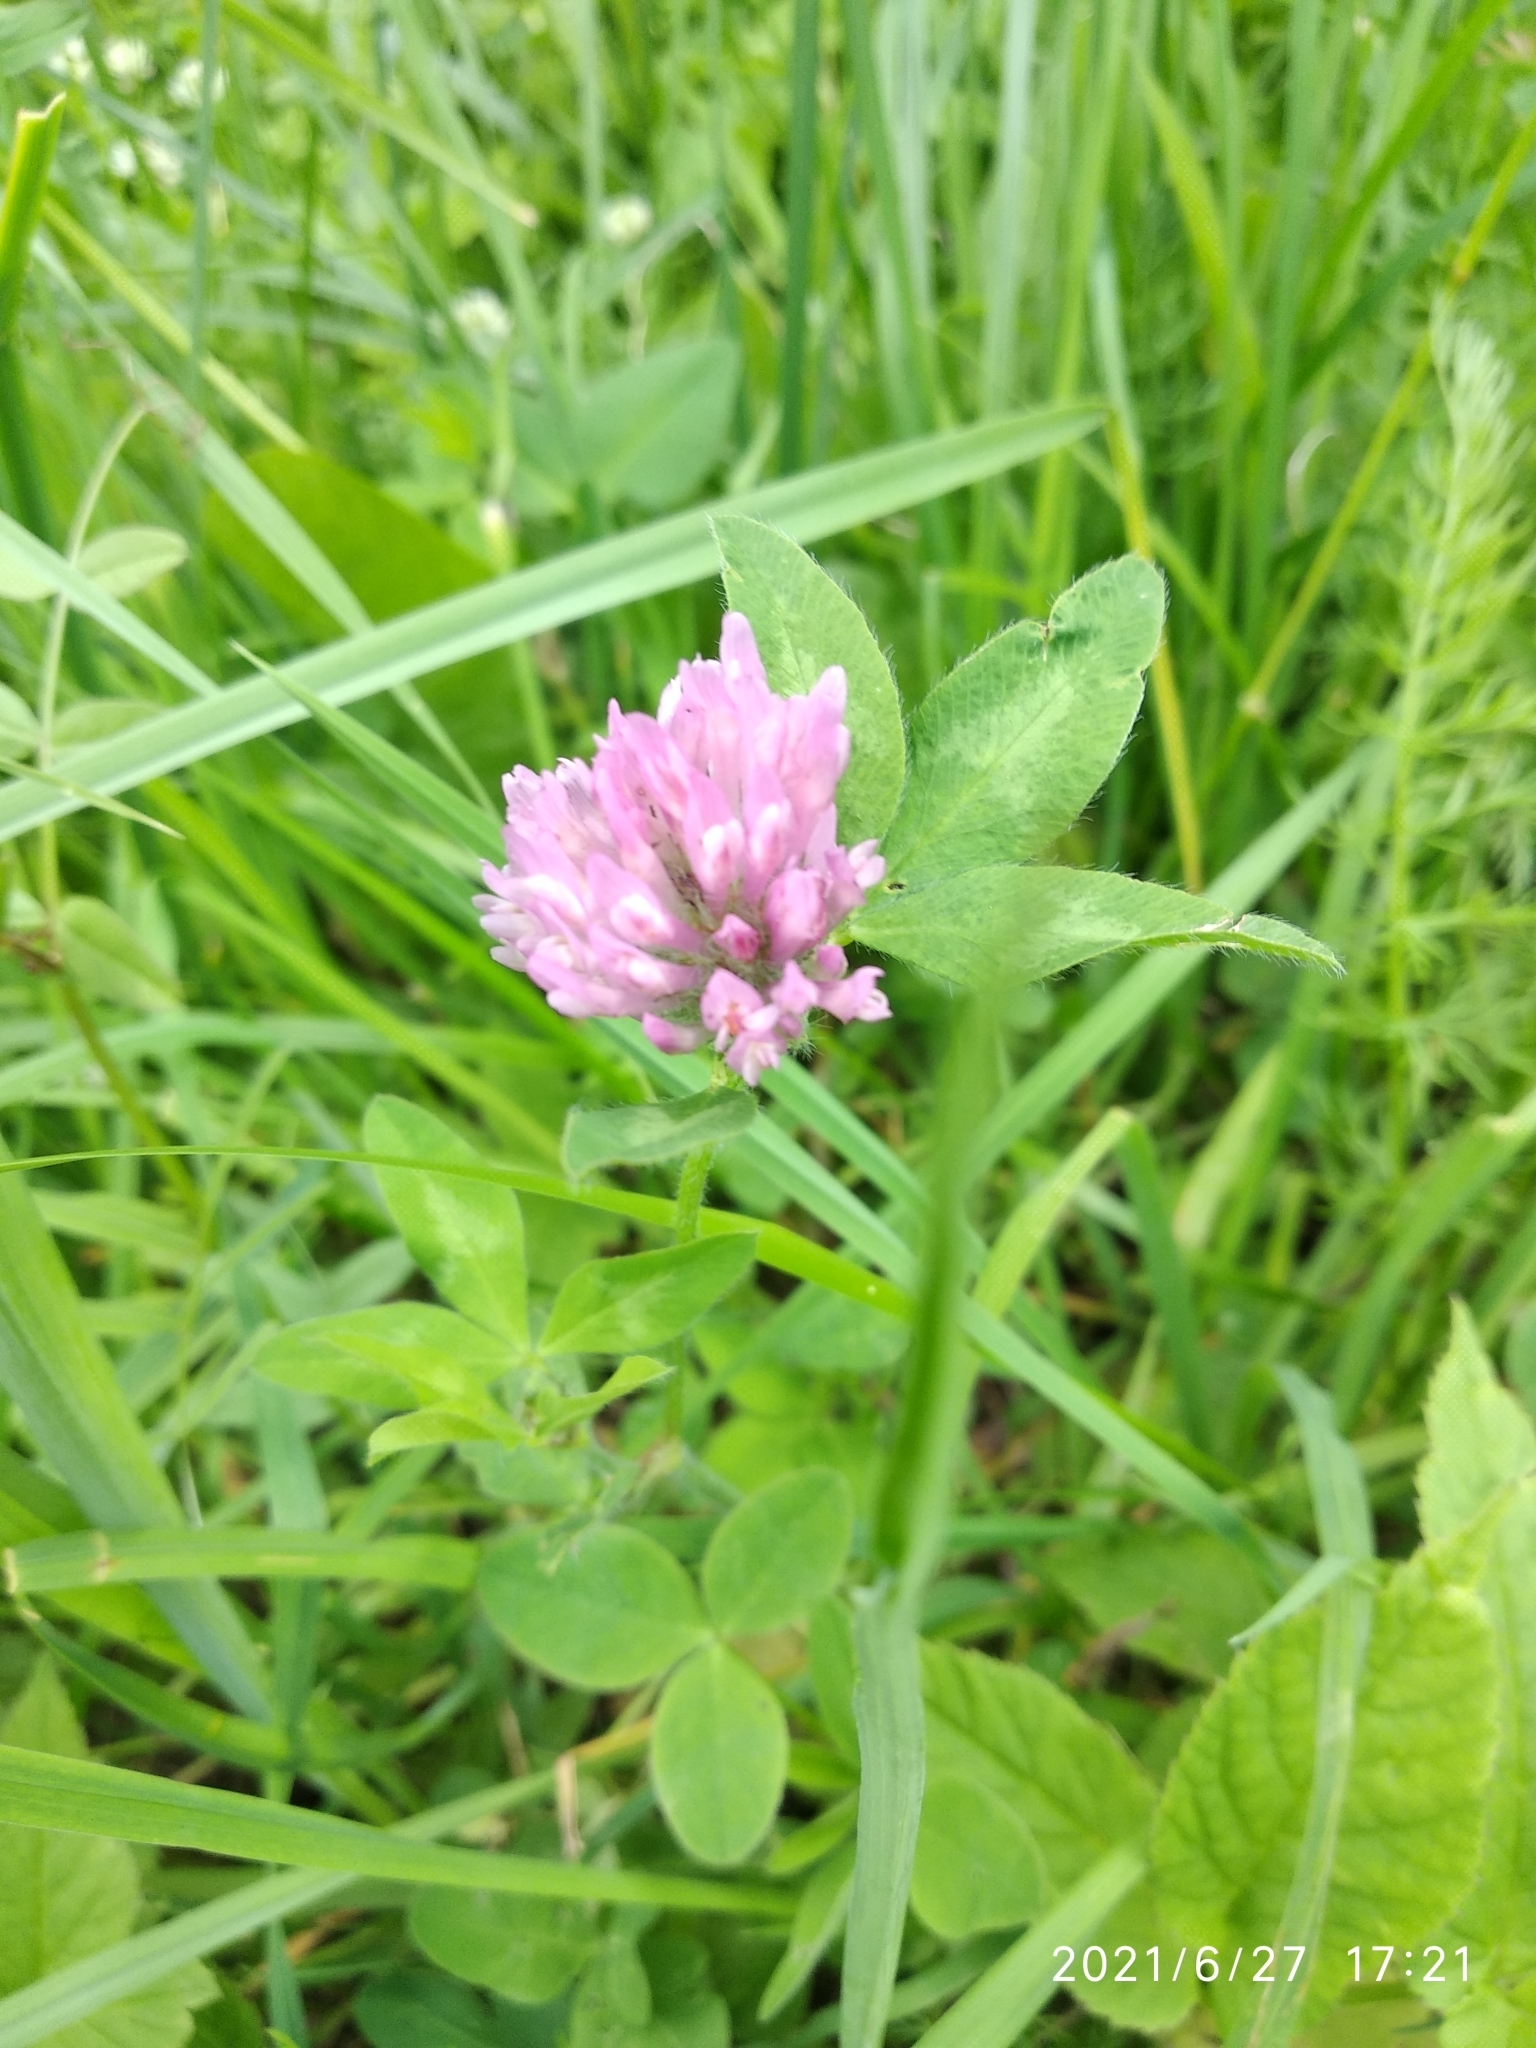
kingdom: Plantae
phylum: Tracheophyta
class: Magnoliopsida
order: Fabales
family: Fabaceae
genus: Trifolium
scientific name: Trifolium pratense
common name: Red clover
